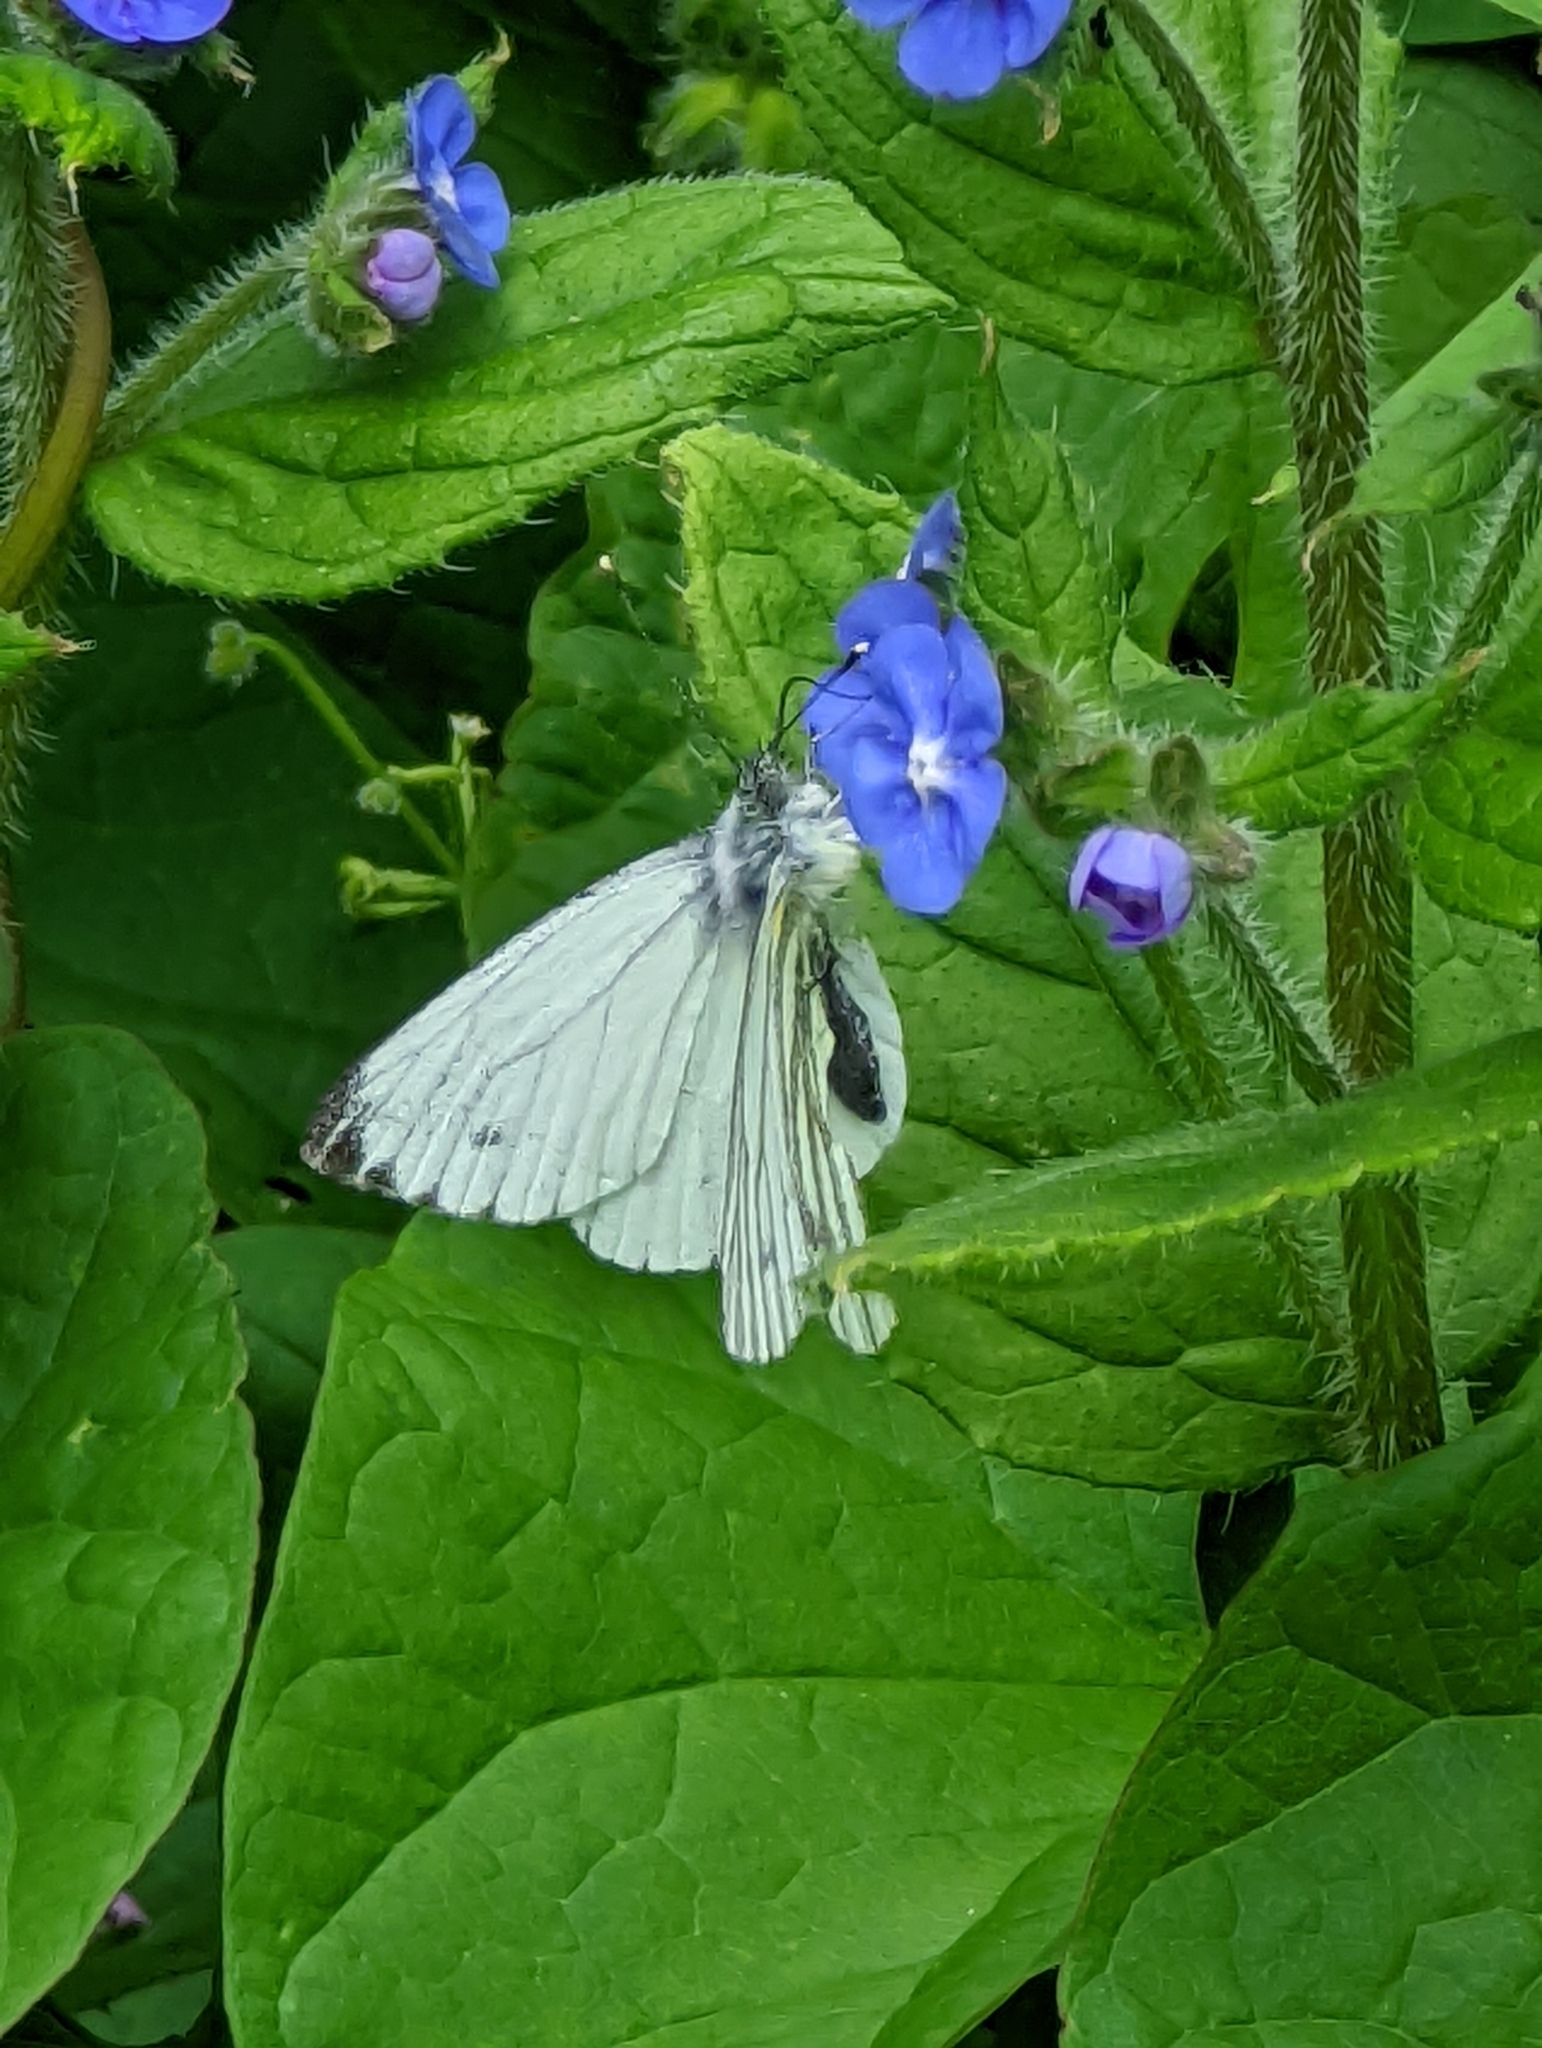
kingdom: Animalia
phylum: Arthropoda
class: Insecta
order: Lepidoptera
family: Pieridae
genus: Pieris
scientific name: Pieris napi
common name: Green-veined white
